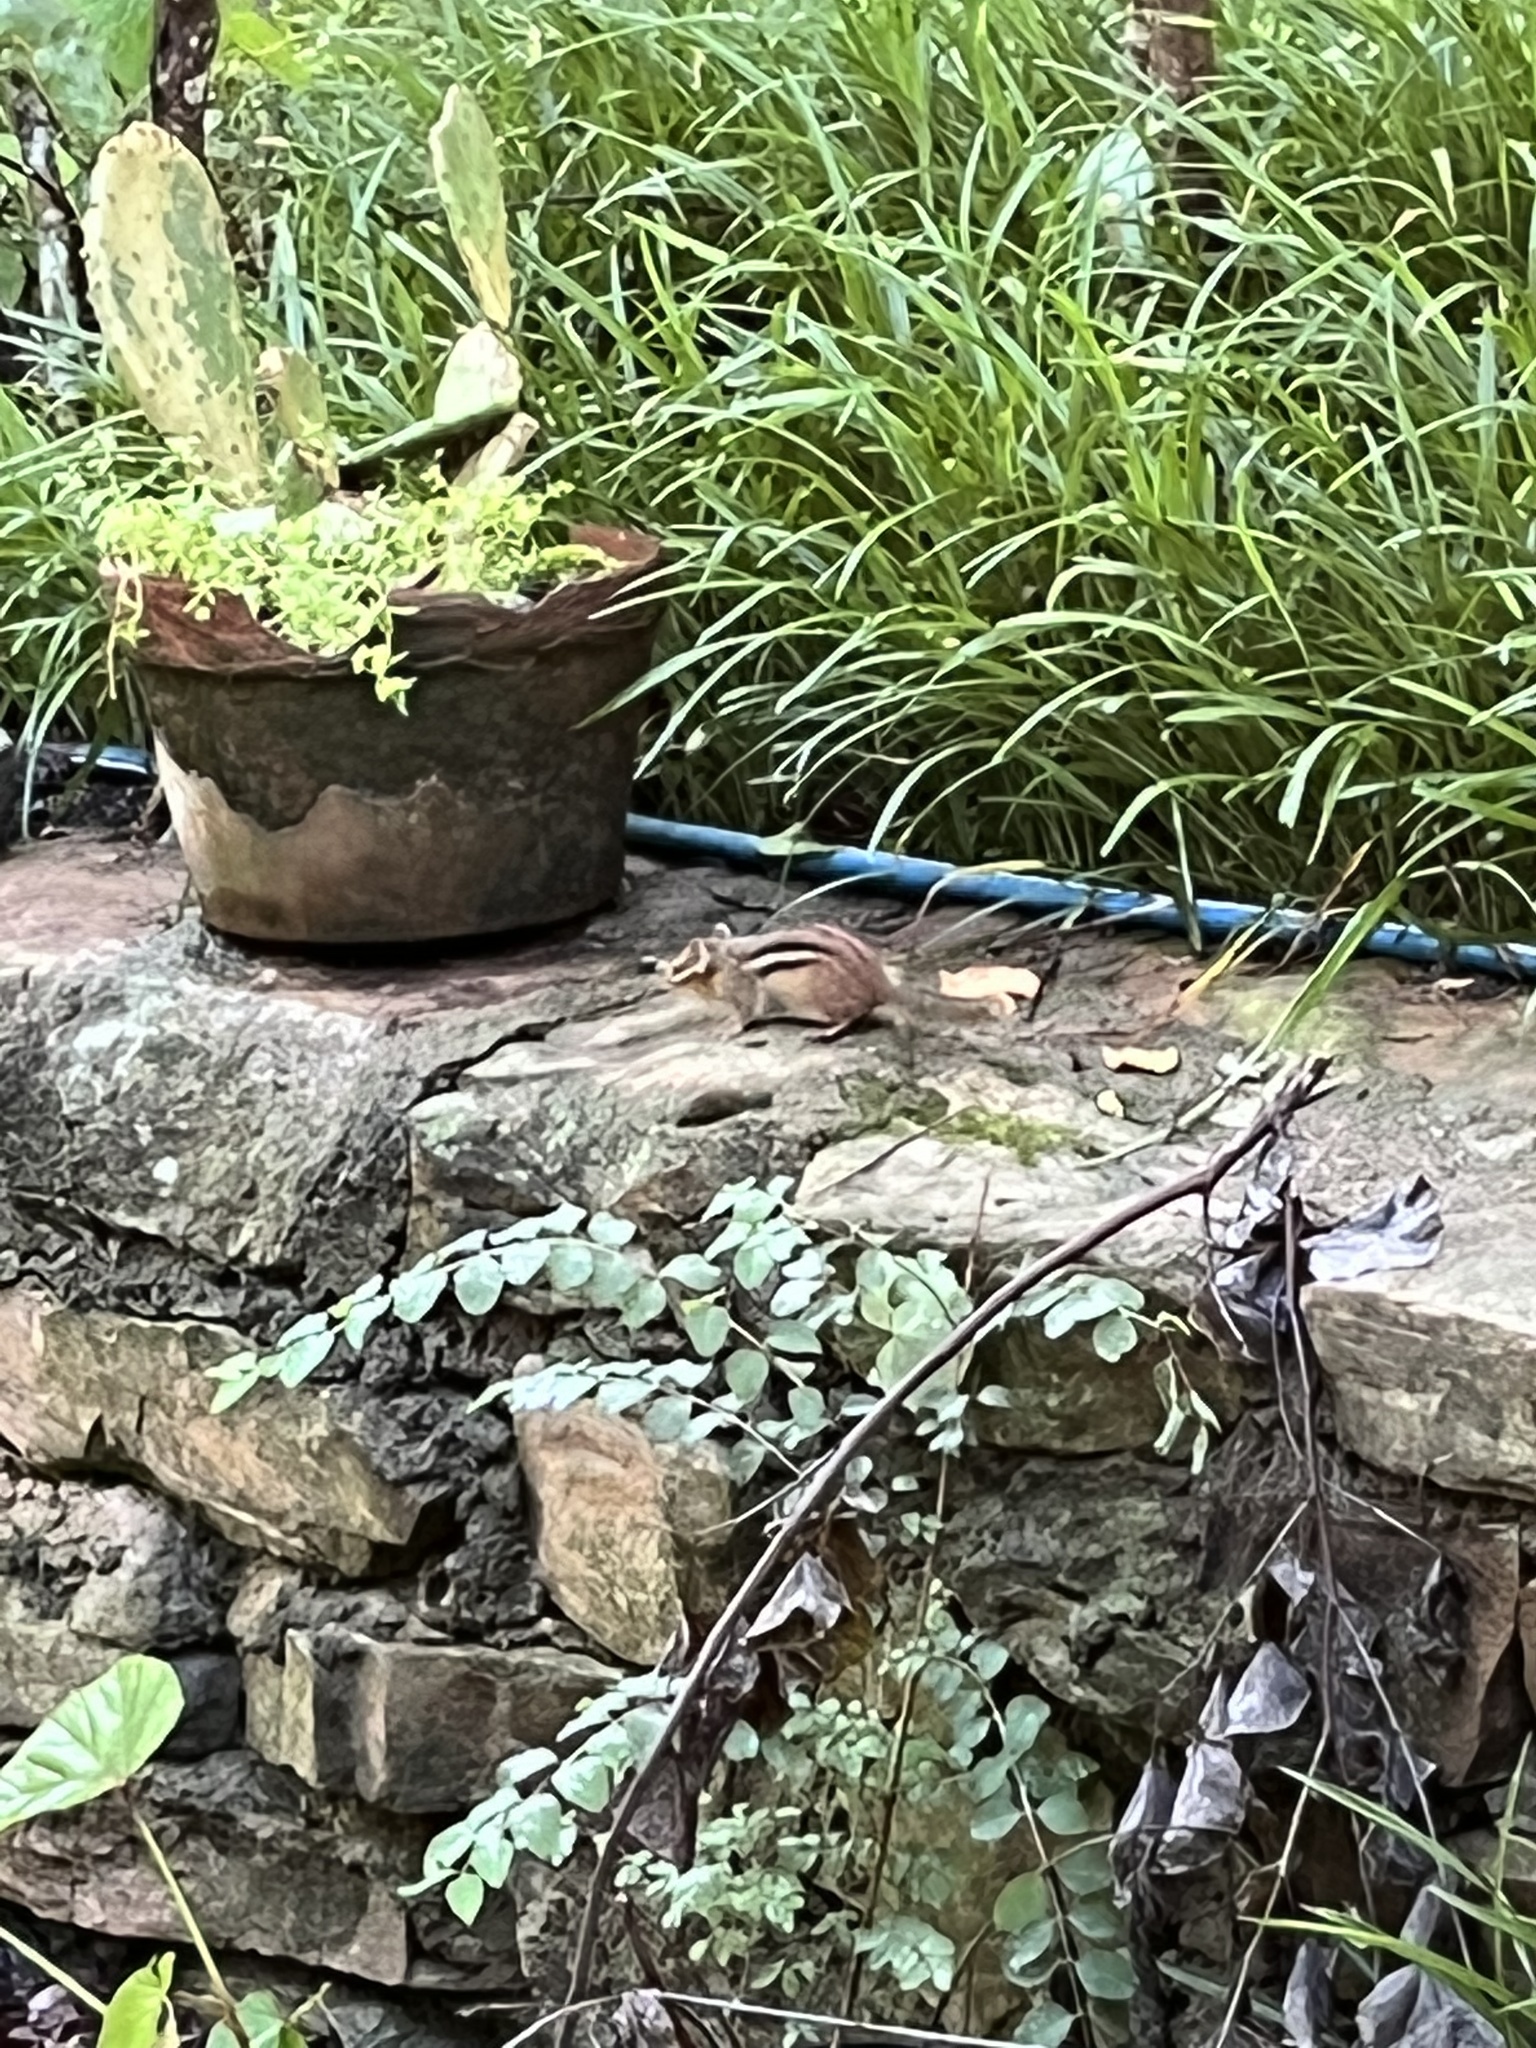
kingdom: Animalia
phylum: Chordata
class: Mammalia
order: Rodentia
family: Sciuridae
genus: Tamias
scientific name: Tamias striatus
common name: Eastern chipmunk
